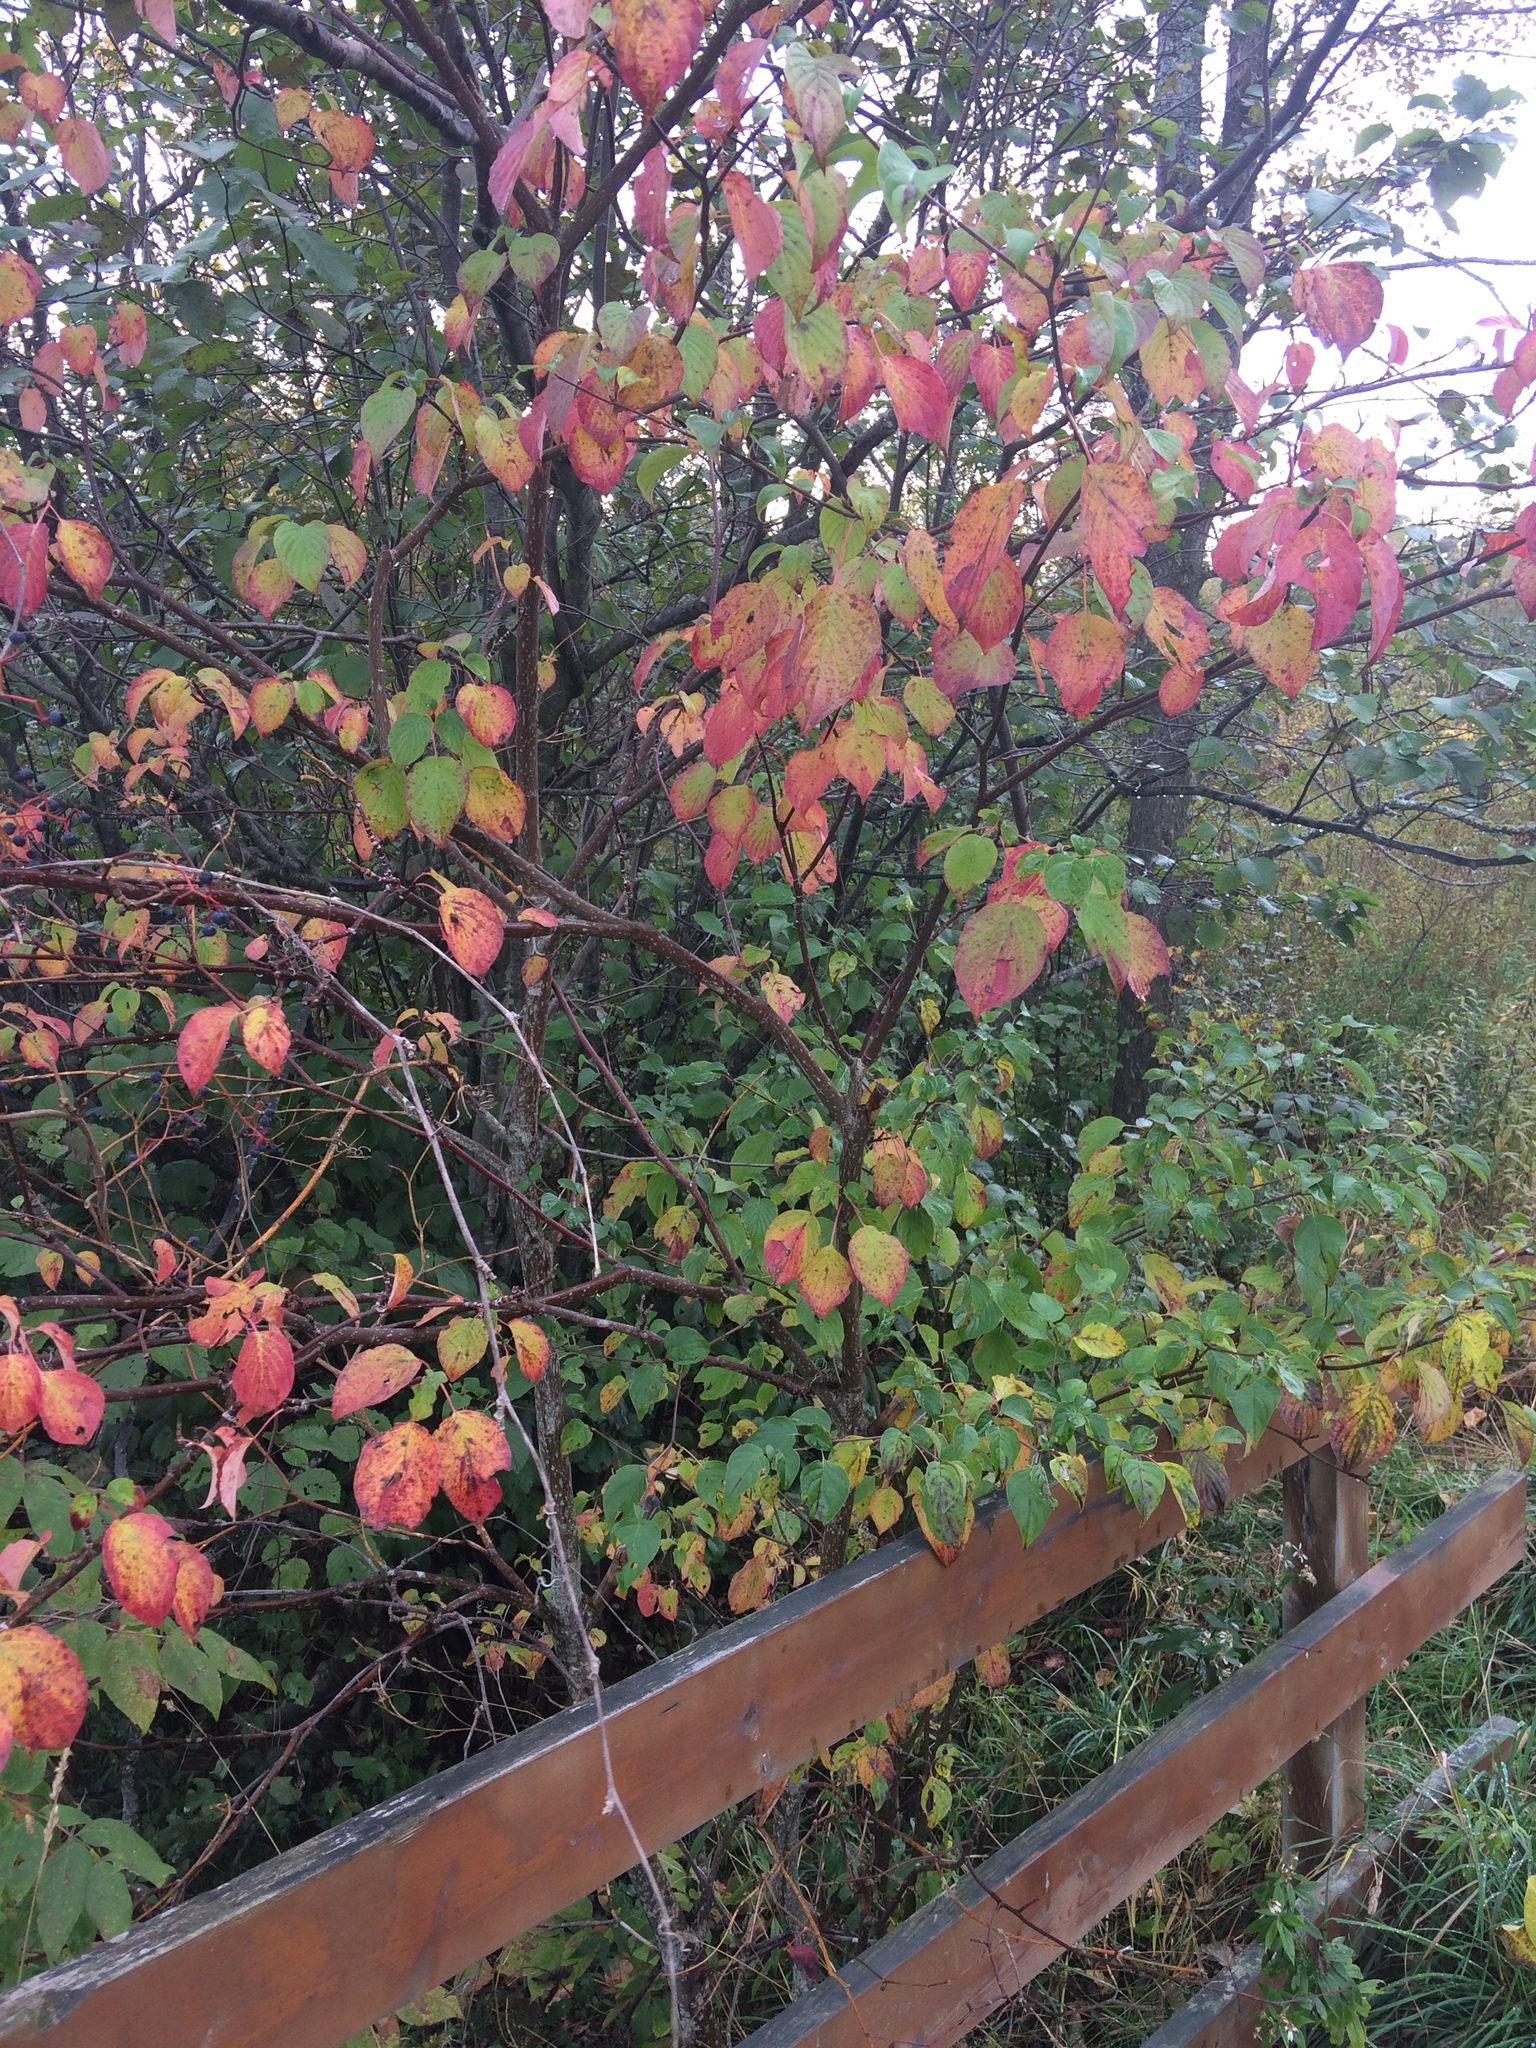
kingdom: Plantae
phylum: Tracheophyta
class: Magnoliopsida
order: Cornales
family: Cornaceae
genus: Cornus
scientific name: Cornus alternifolia
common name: Pagoda dogwood
